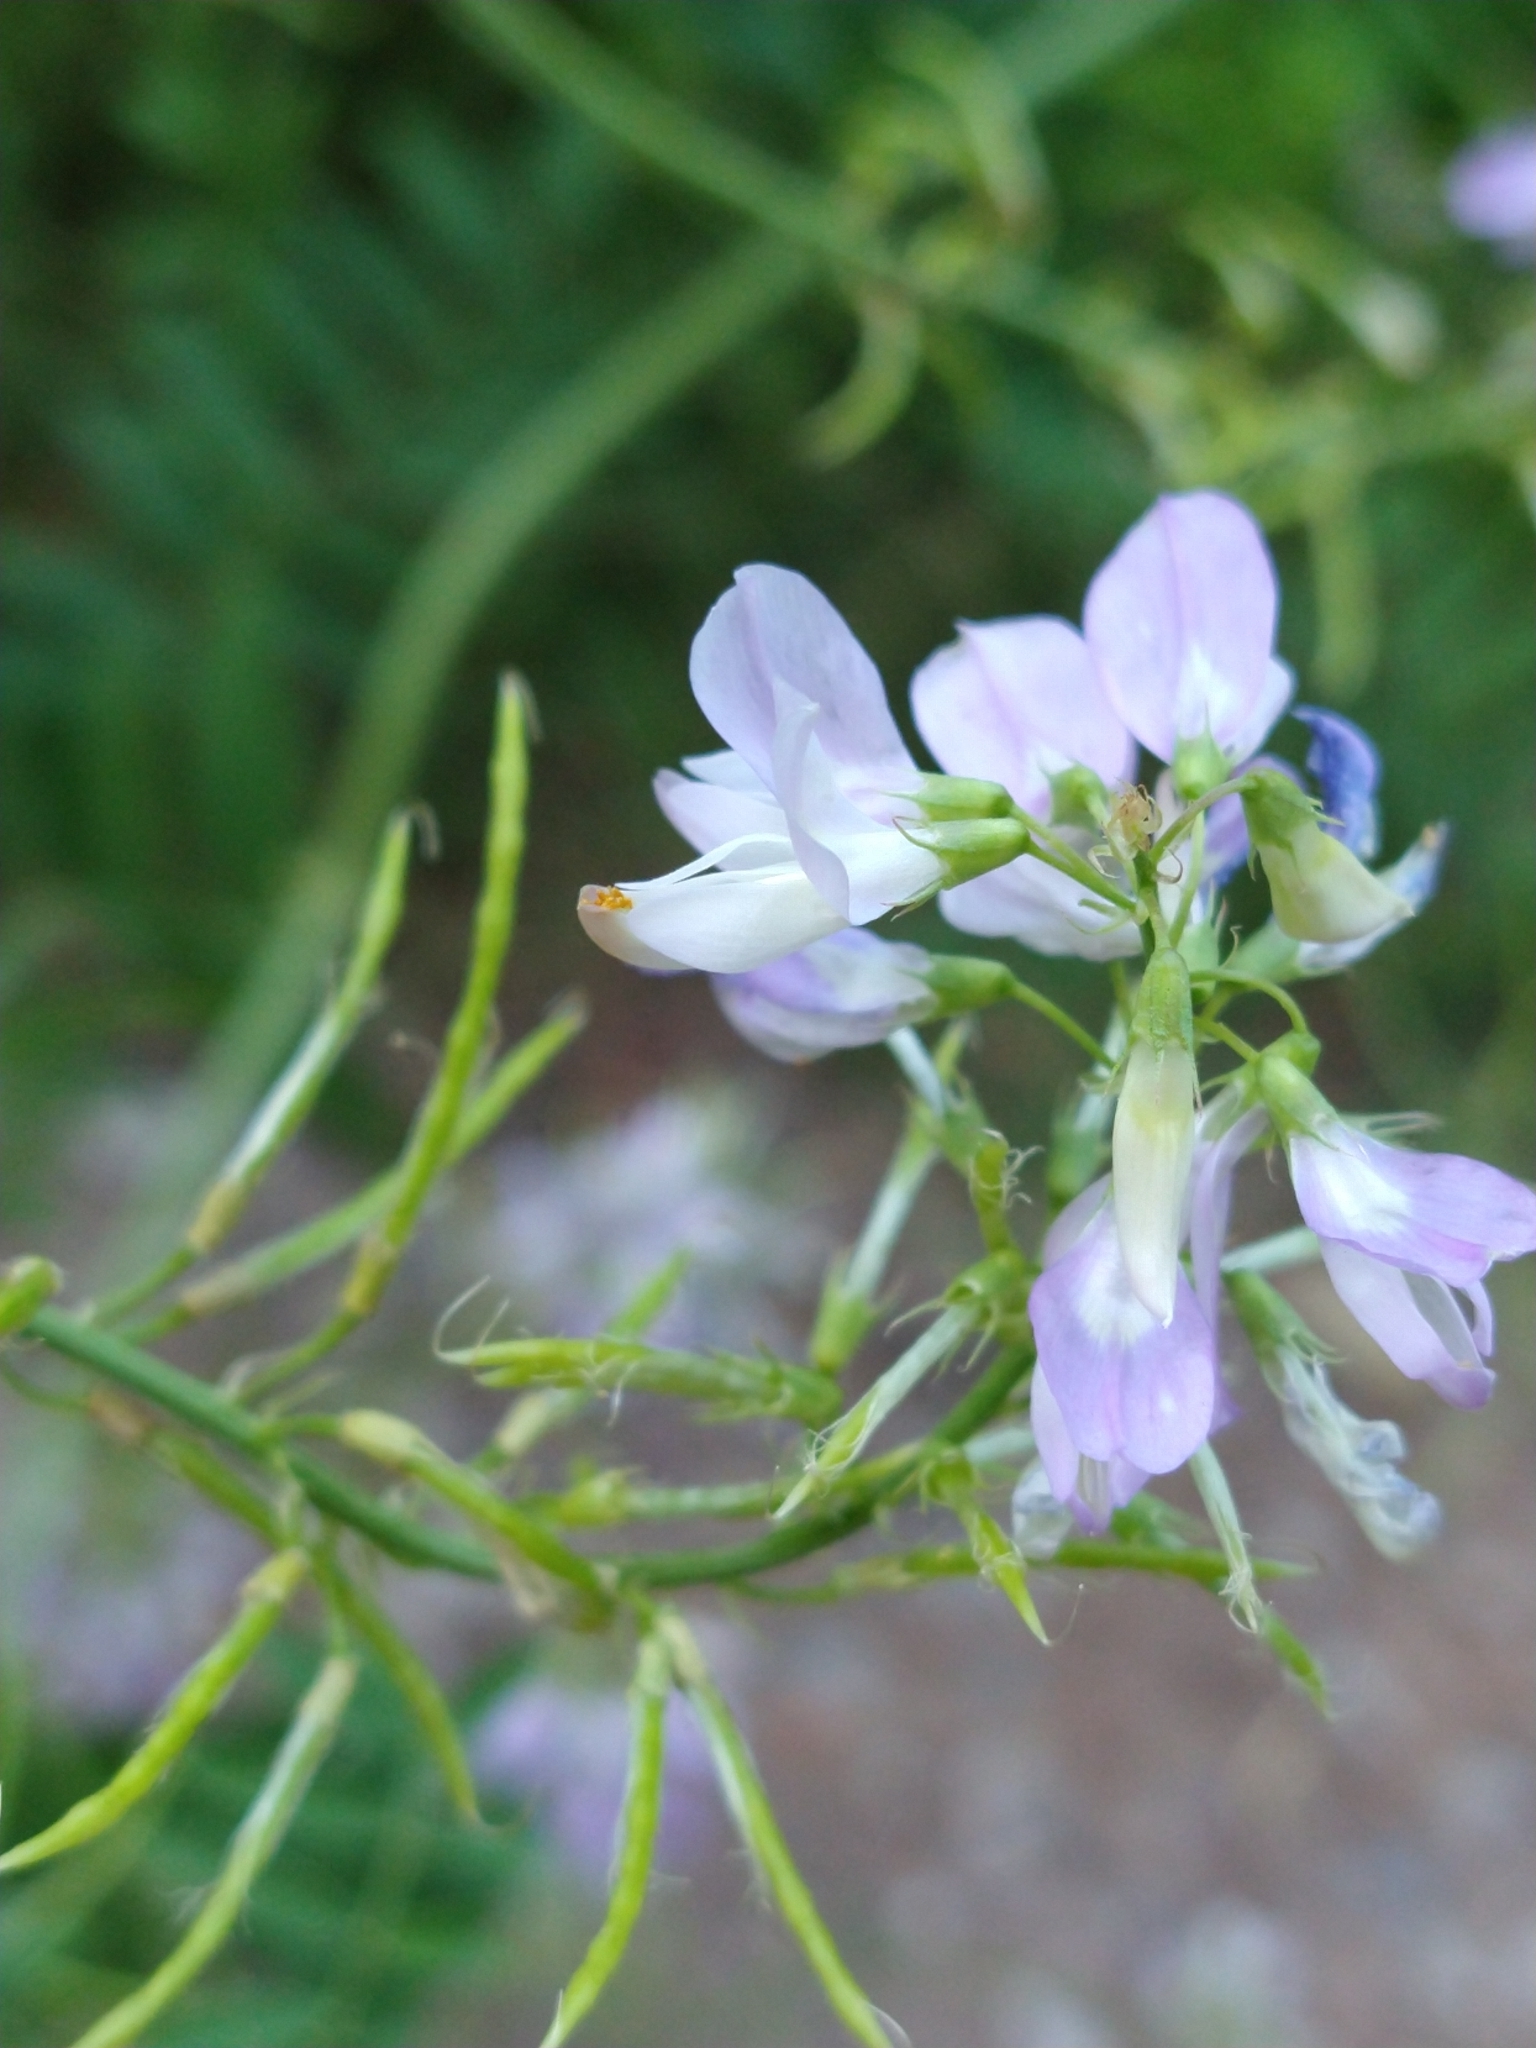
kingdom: Plantae
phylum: Tracheophyta
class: Magnoliopsida
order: Fabales
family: Fabaceae
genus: Galega
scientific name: Galega officinalis
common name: Goat's-rue
